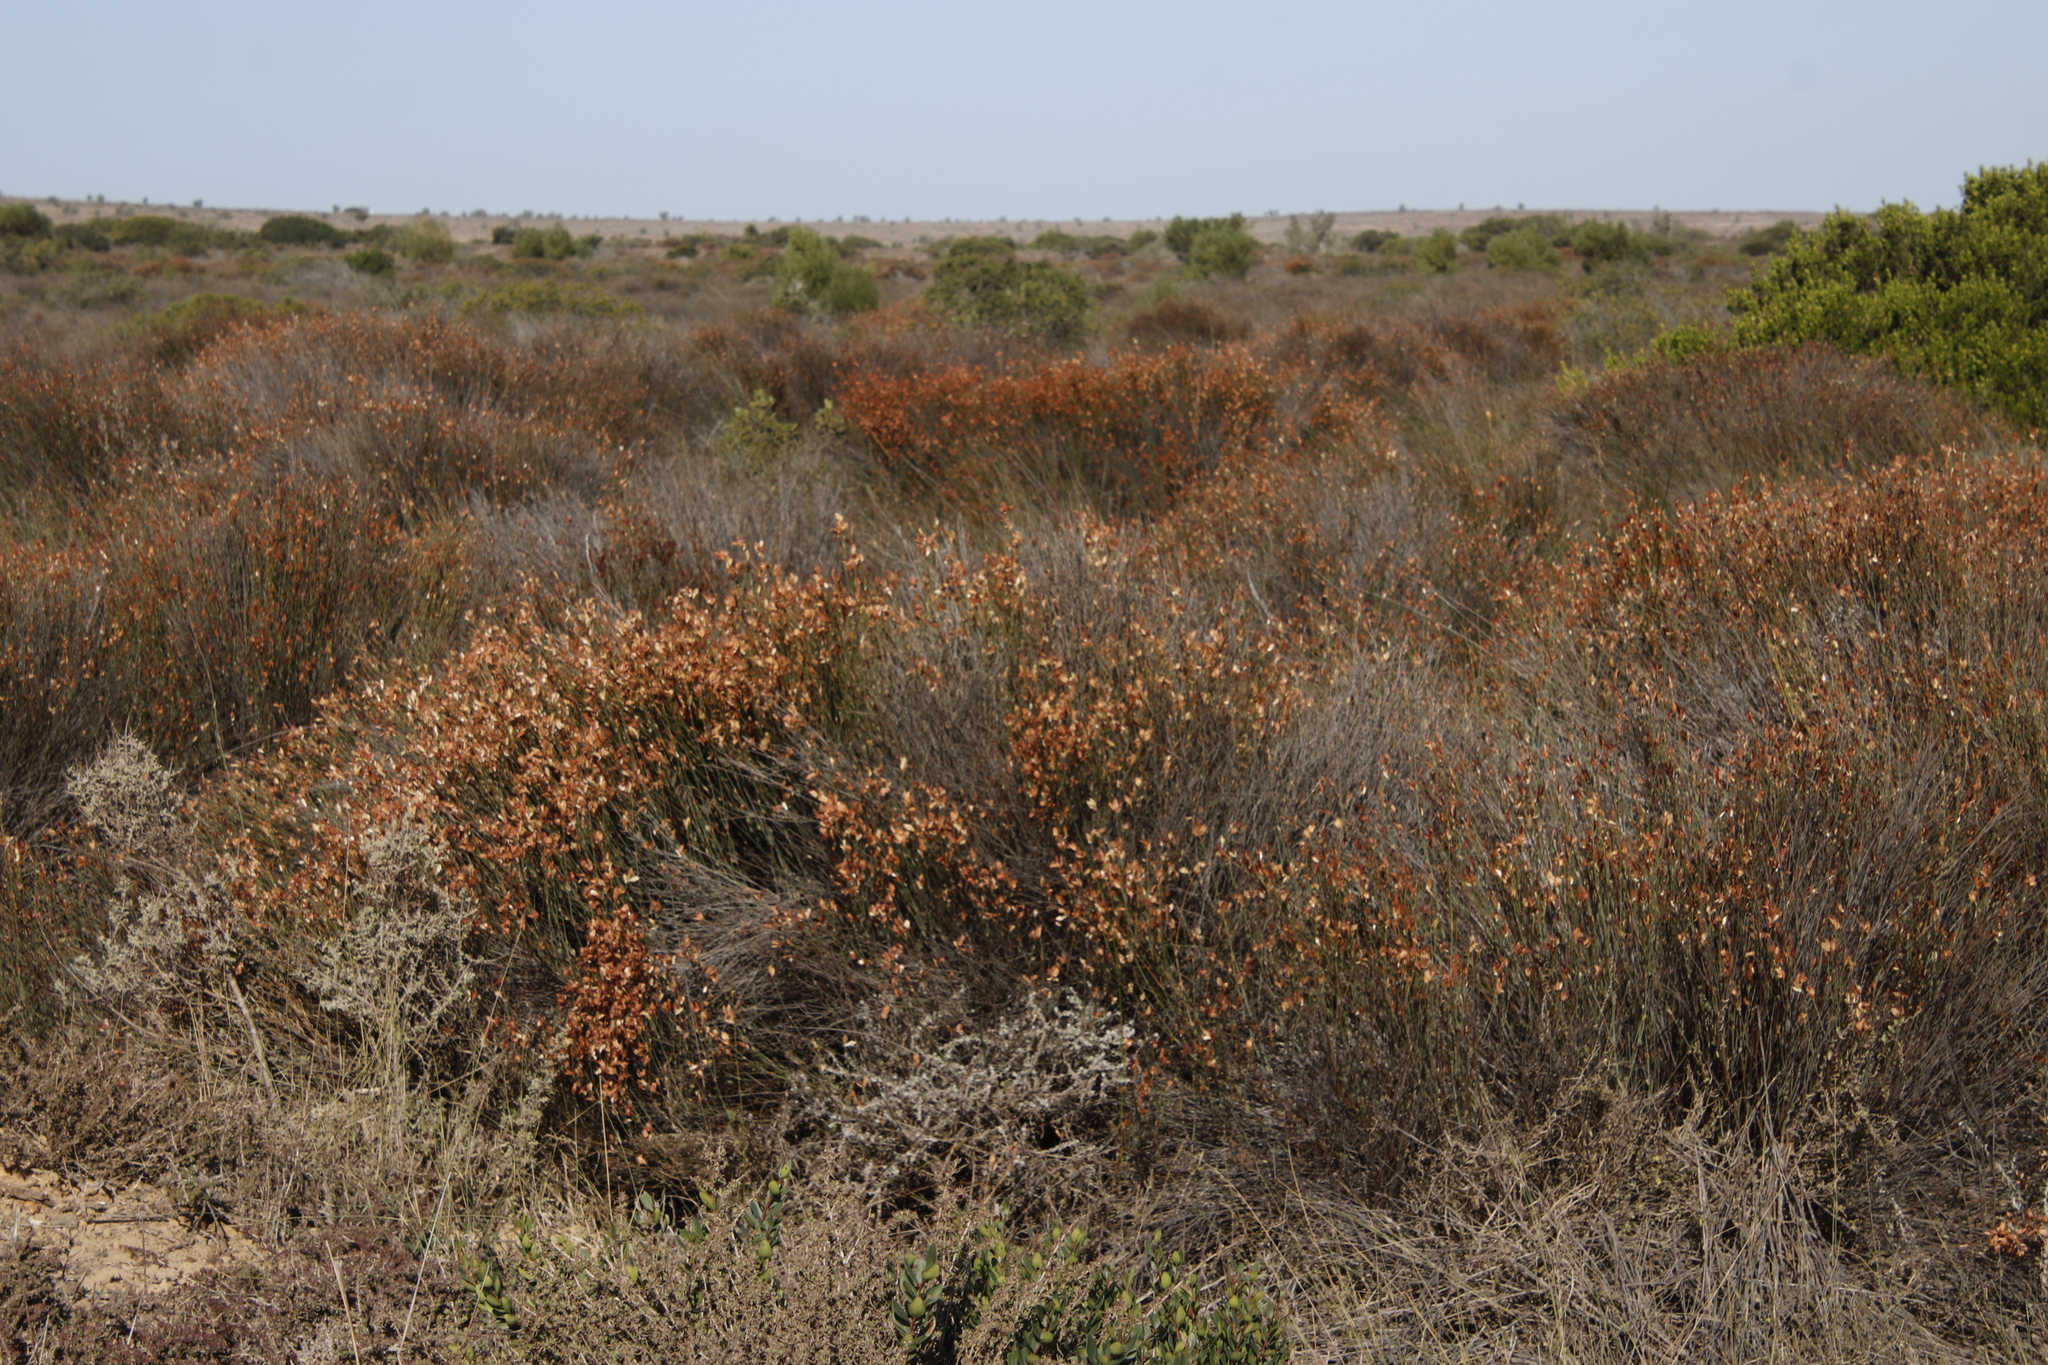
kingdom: Plantae
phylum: Tracheophyta
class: Liliopsida
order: Poales
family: Restionaceae
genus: Willdenowia
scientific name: Willdenowia incurvata
